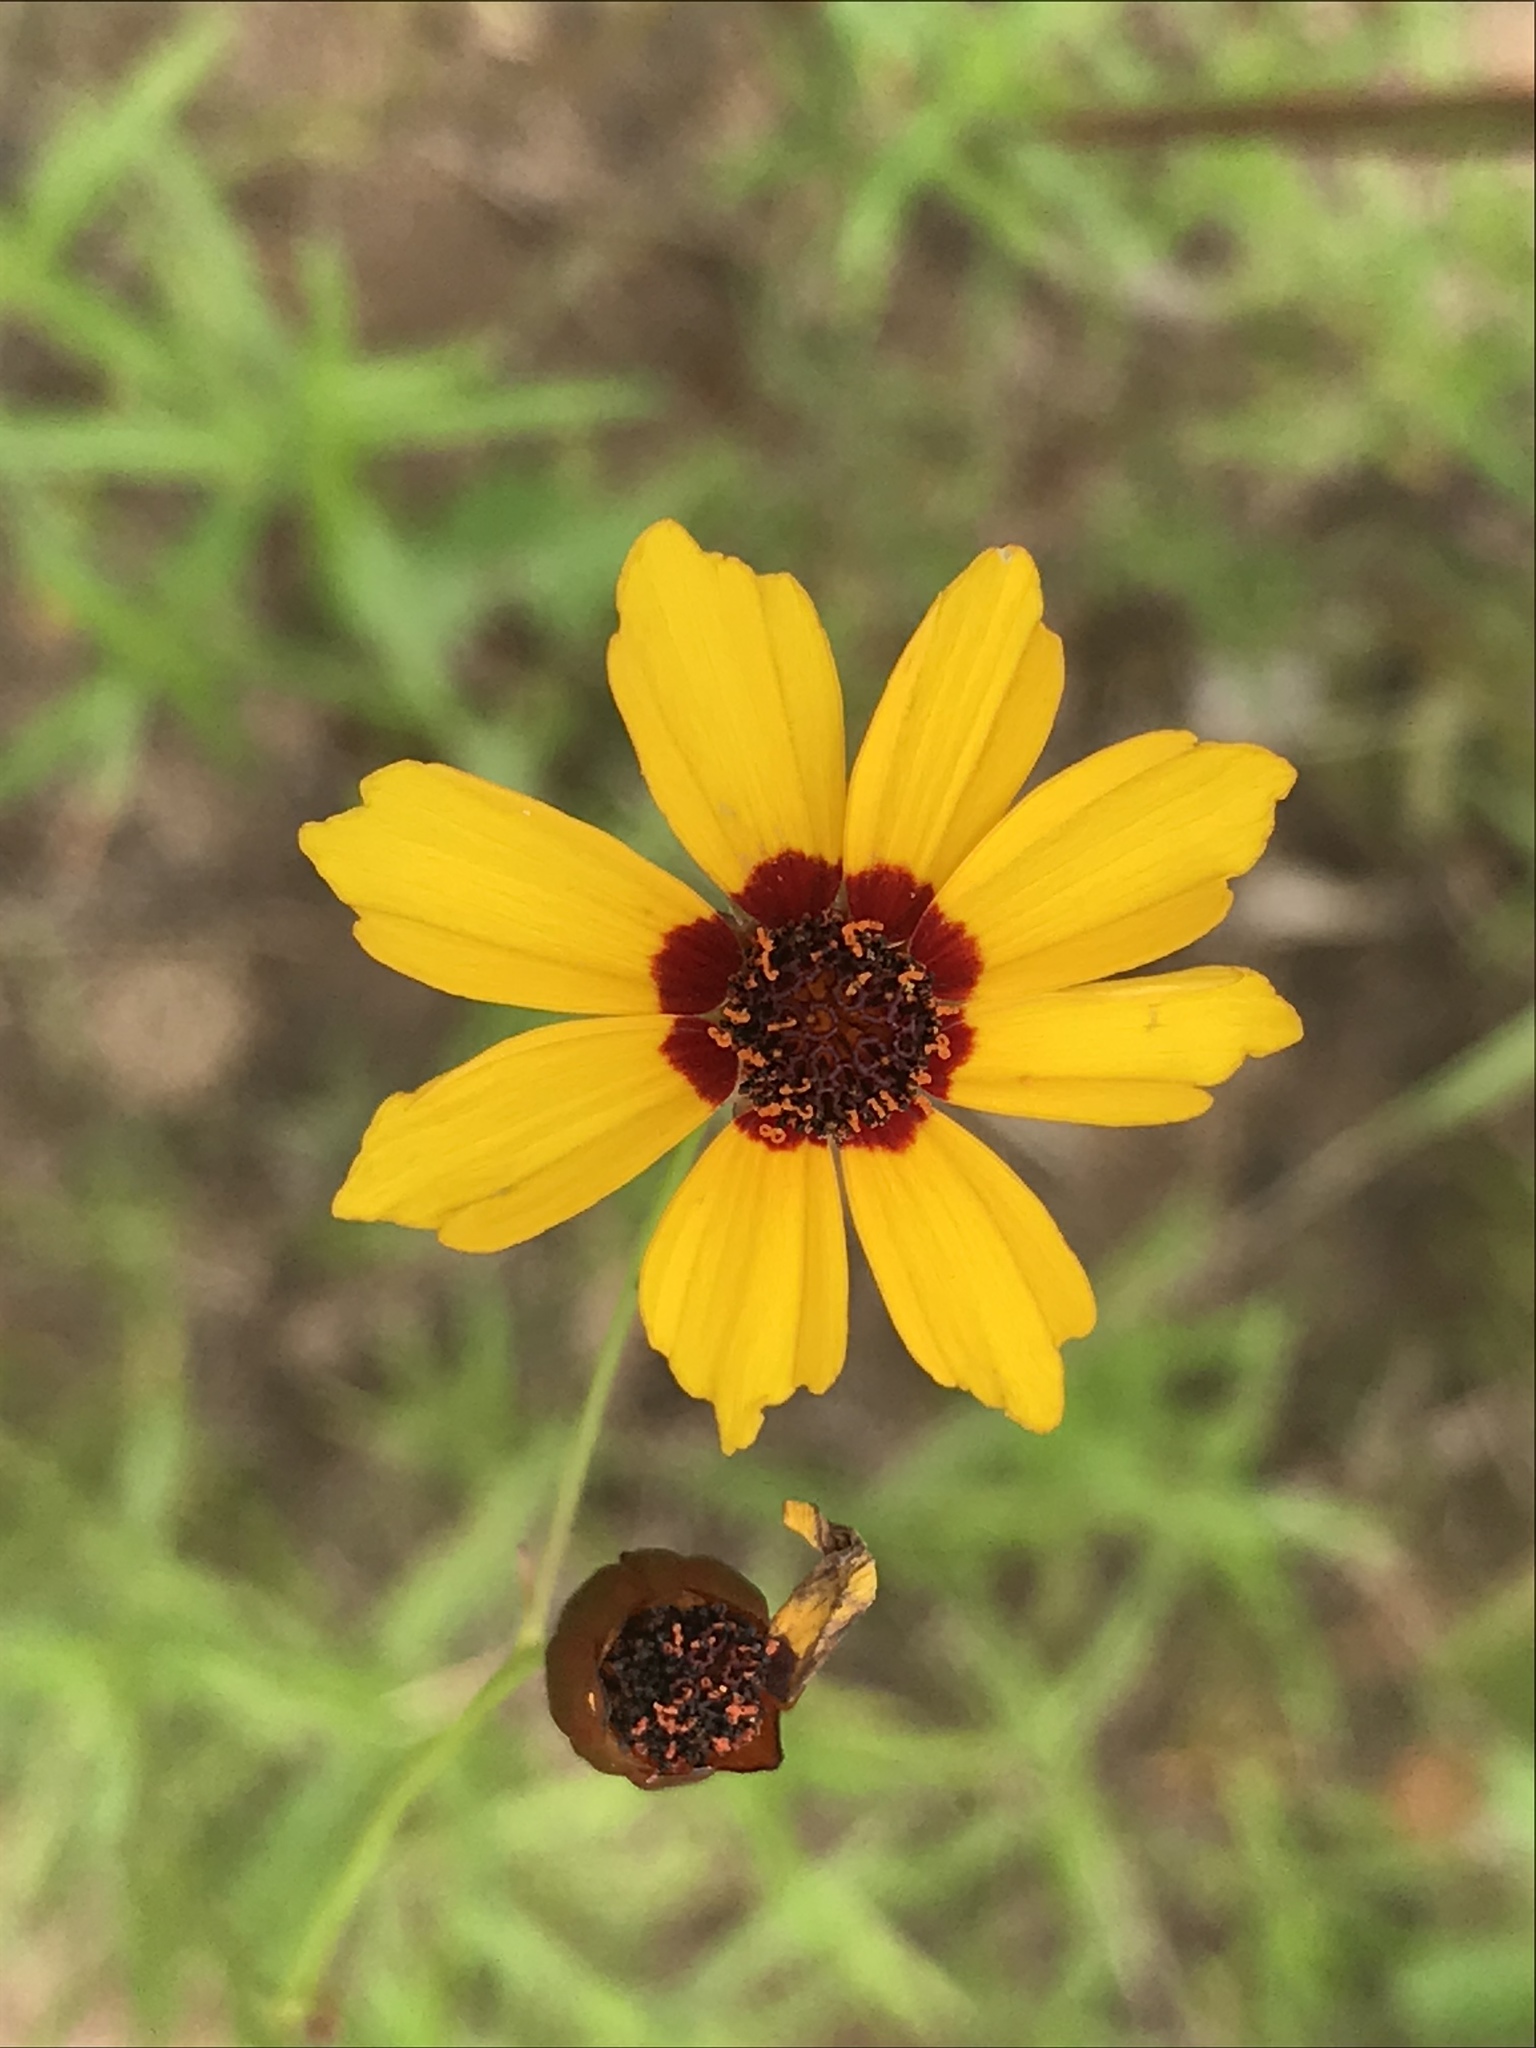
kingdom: Plantae
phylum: Tracheophyta
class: Magnoliopsida
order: Asterales
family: Asteraceae
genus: Coreopsis
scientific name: Coreopsis tinctoria
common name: Garden tickseed
